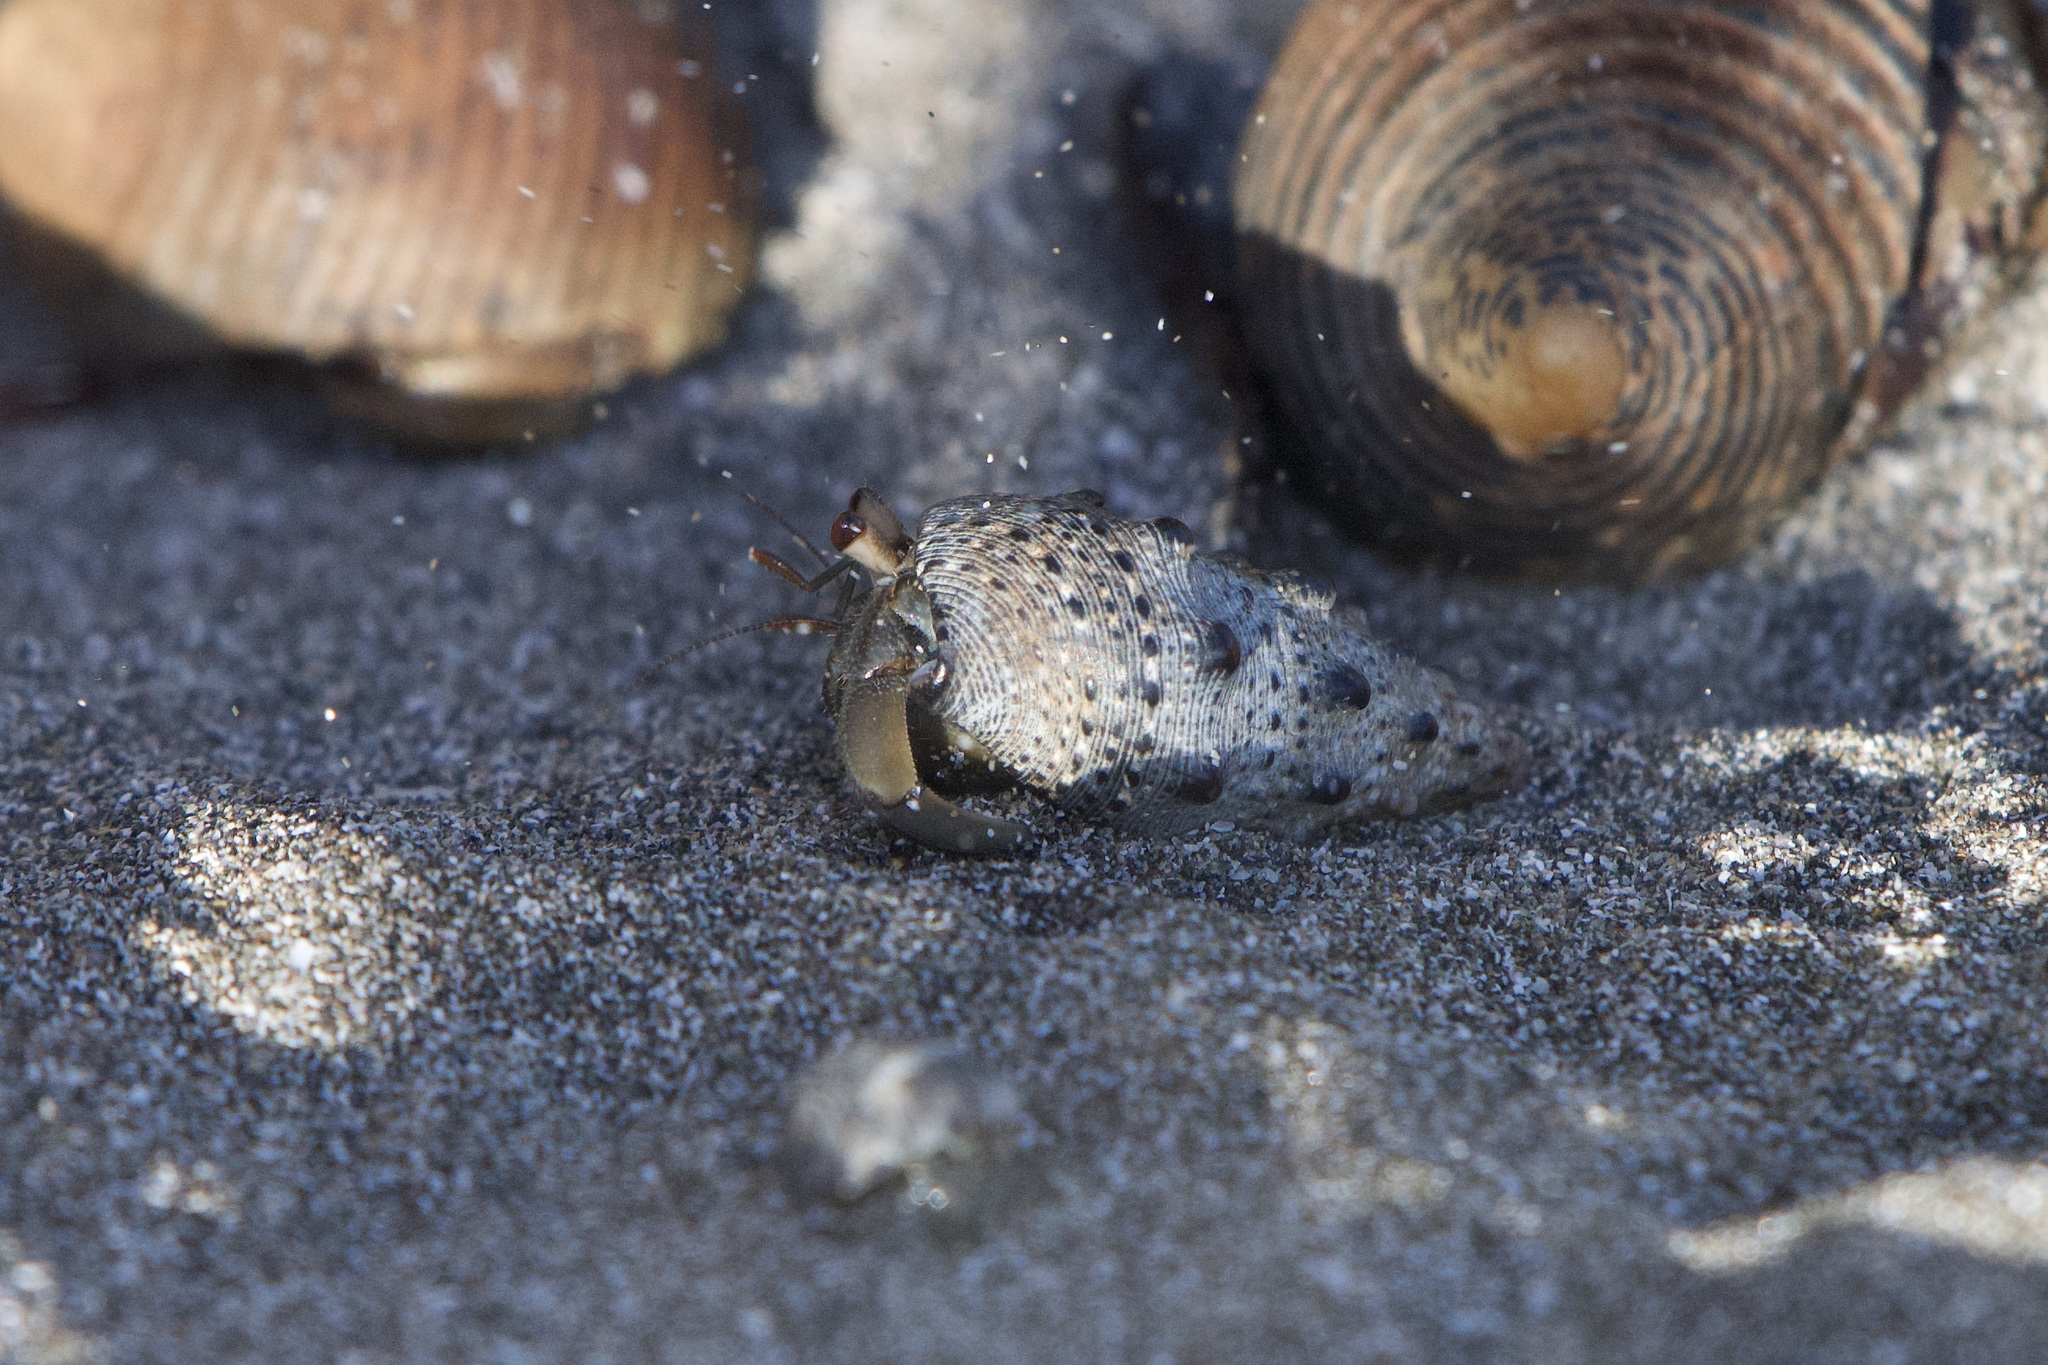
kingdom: Animalia
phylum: Arthropoda
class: Malacostraca
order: Decapoda
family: Coenobitidae
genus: Coenobita
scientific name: Coenobita compressus
